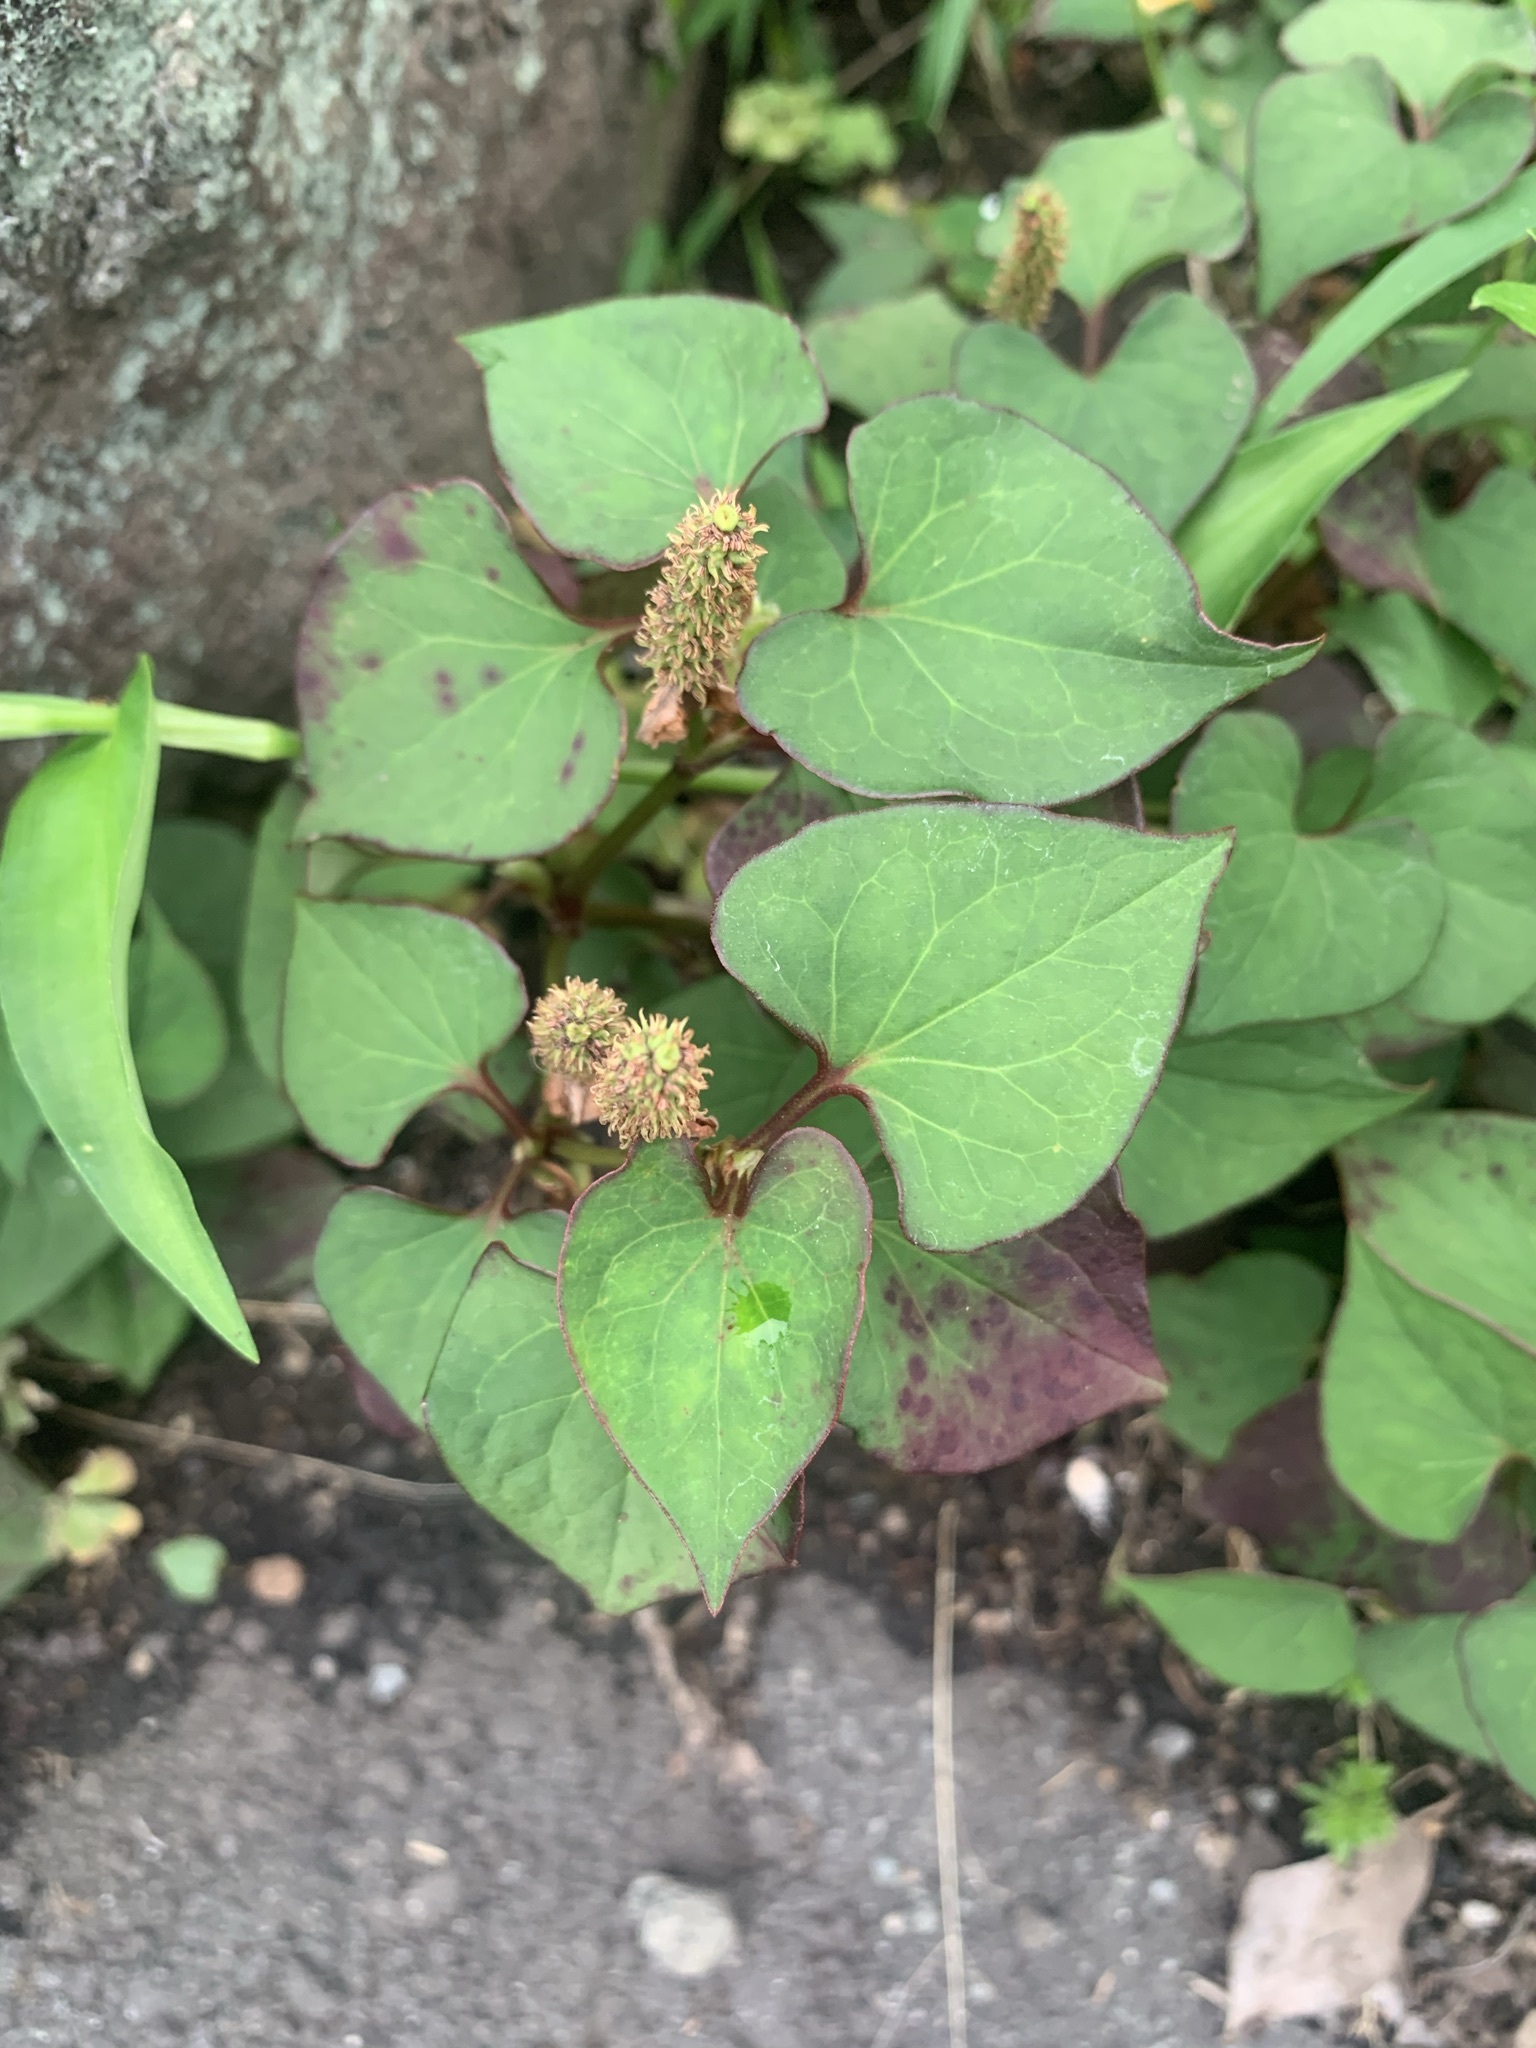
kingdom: Plantae
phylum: Tracheophyta
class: Magnoliopsida
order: Piperales
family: Saururaceae
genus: Houttuynia
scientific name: Houttuynia cordata
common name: Chameleon
